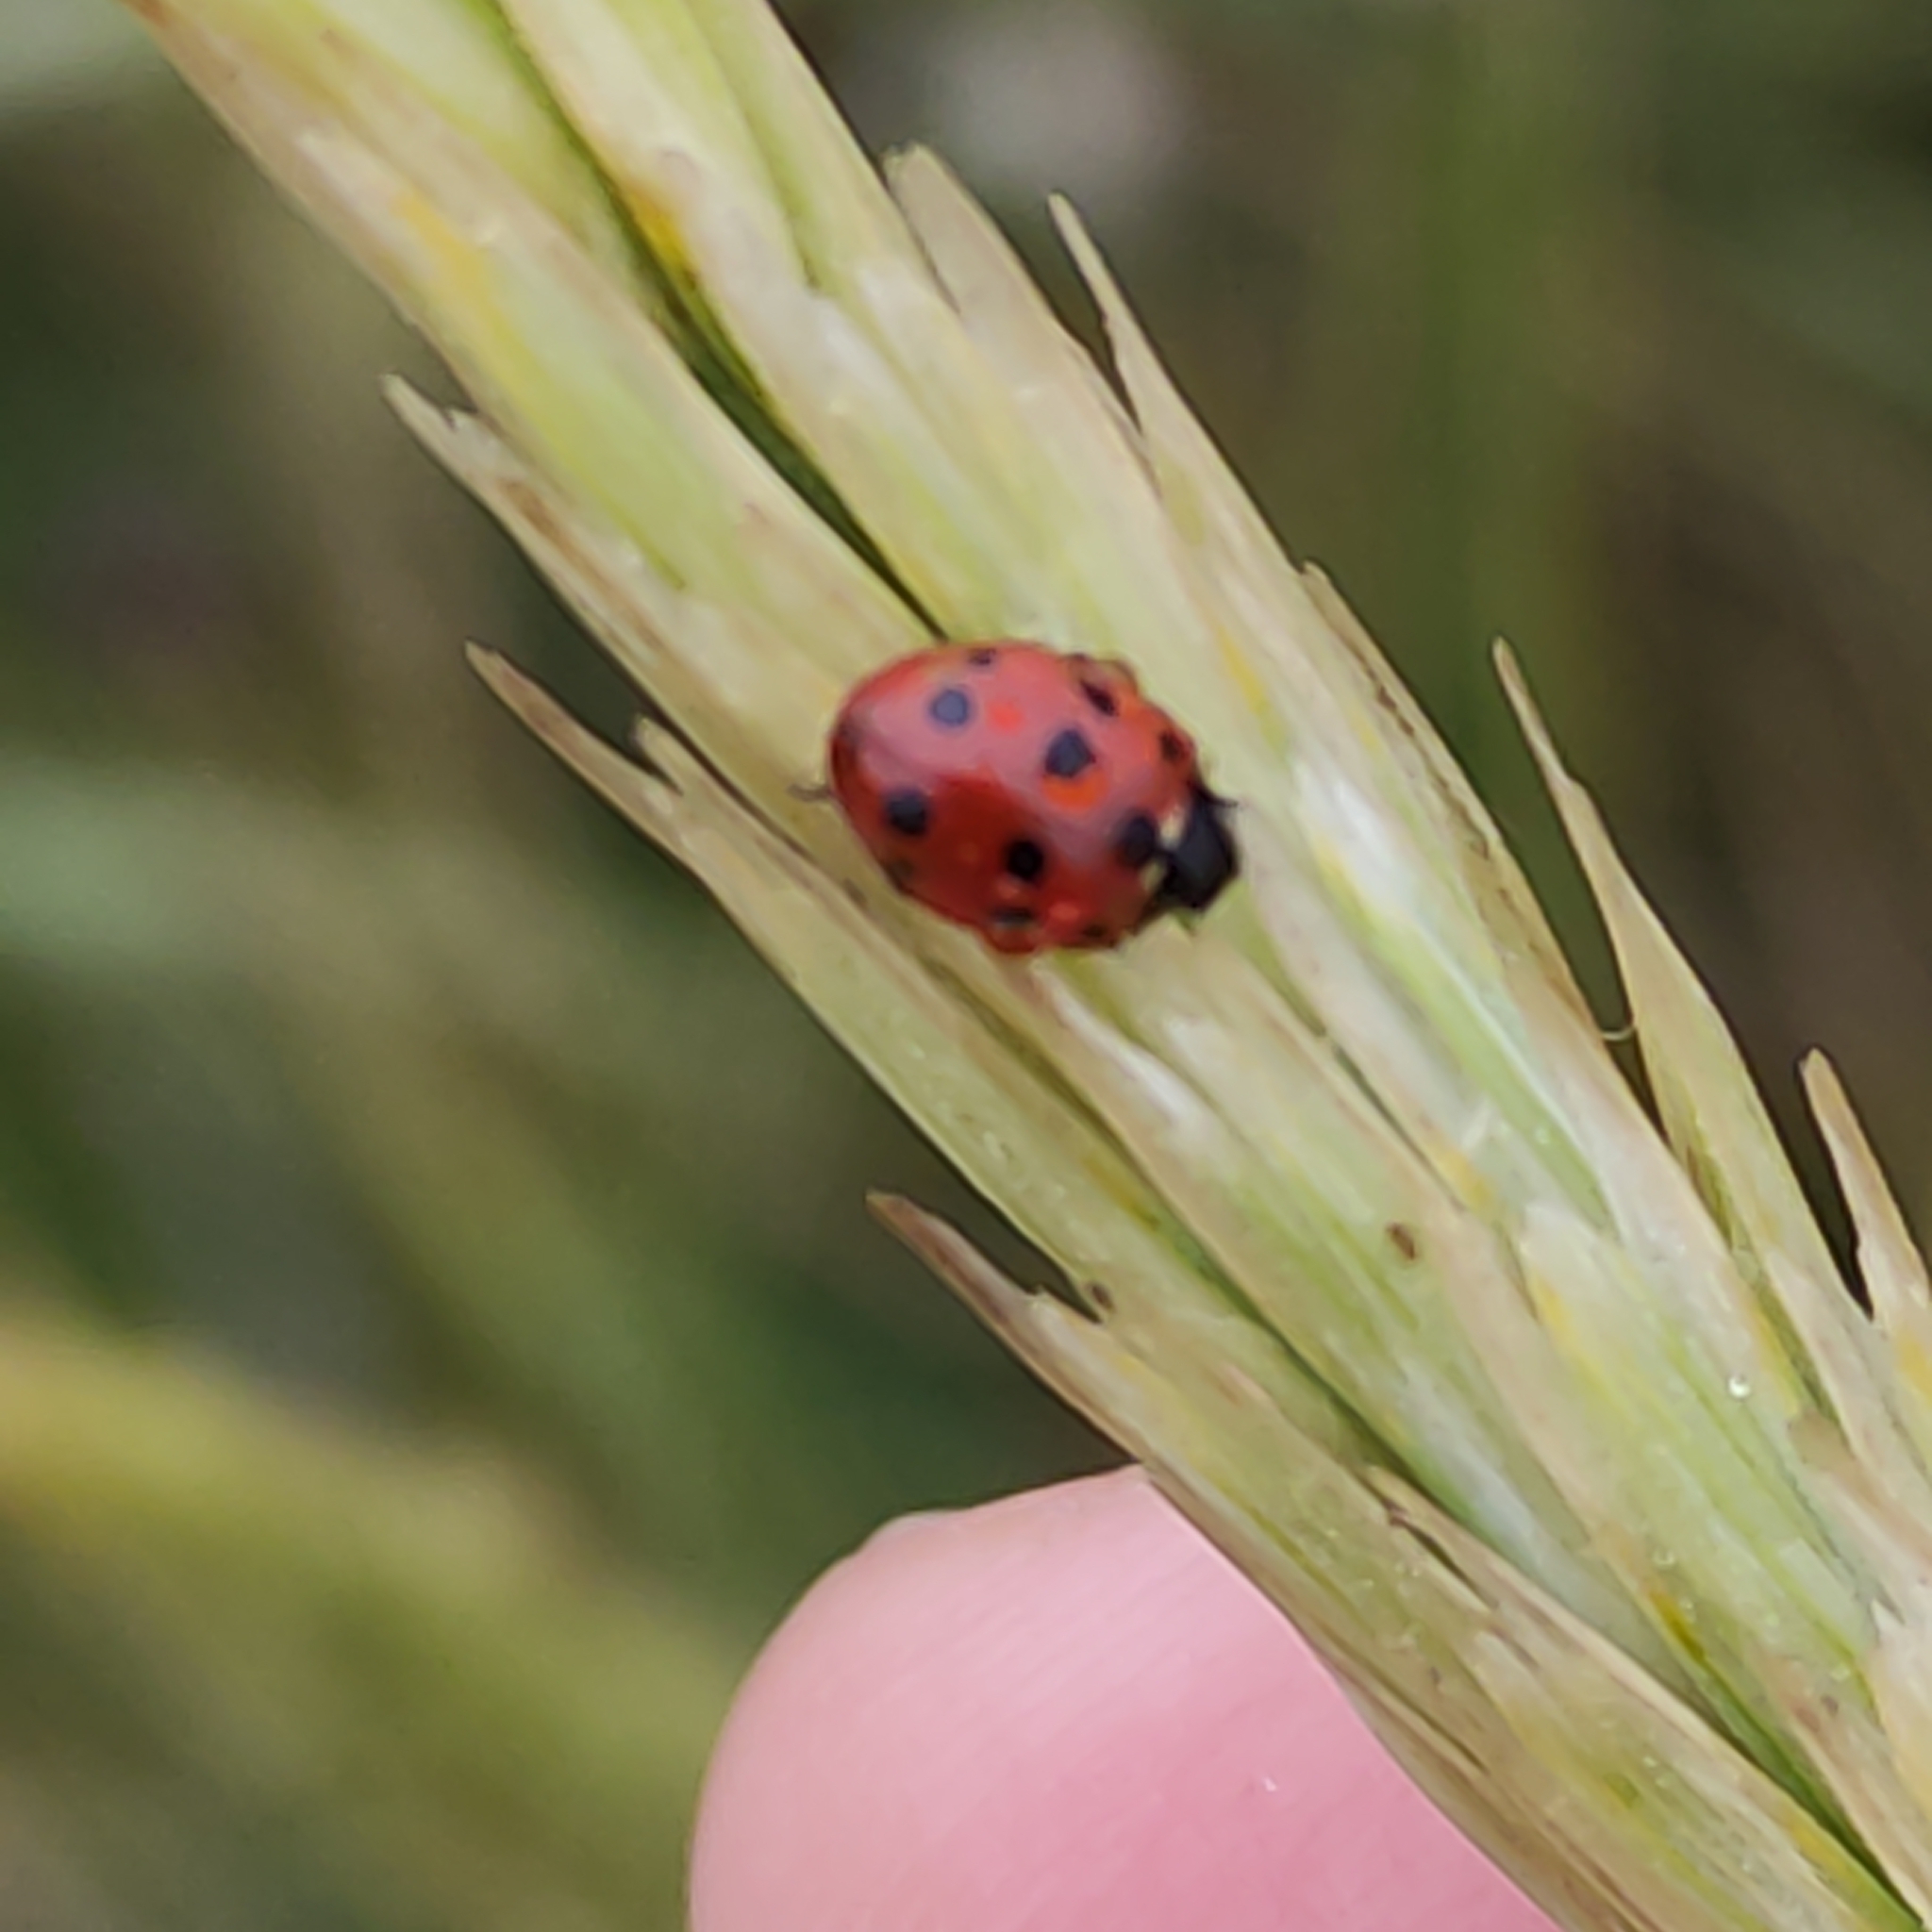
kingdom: Animalia
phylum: Arthropoda
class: Insecta
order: Coleoptera
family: Coccinellidae
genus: Coccinella
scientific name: Coccinella undecimpunctata
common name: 11-spot ladybird
